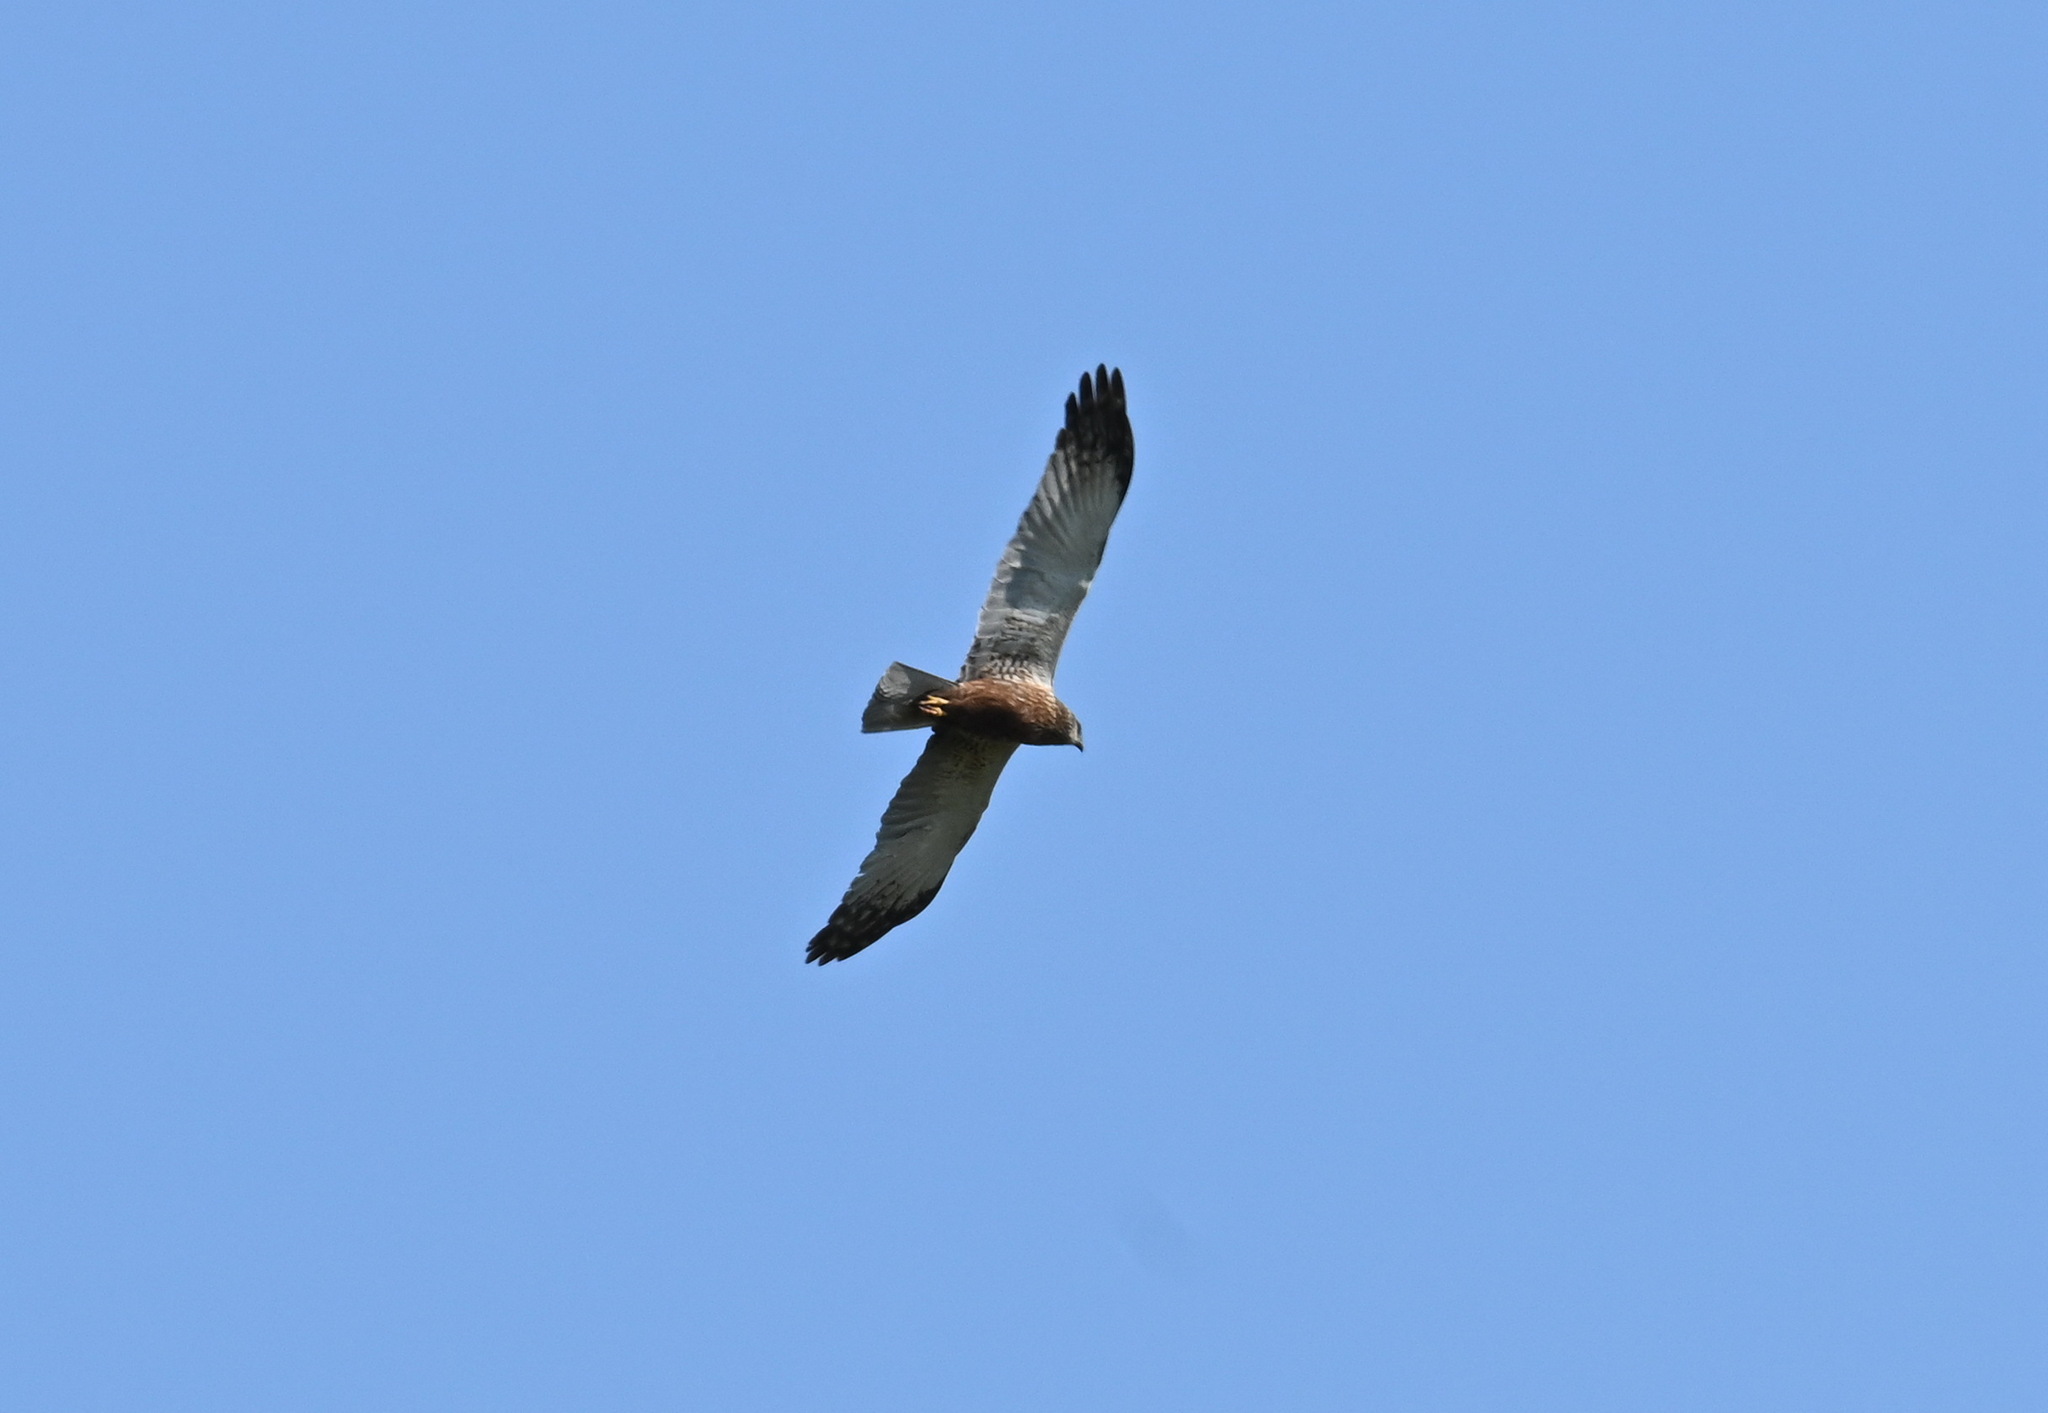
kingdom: Animalia
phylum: Chordata
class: Aves
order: Accipitriformes
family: Accipitridae
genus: Circus
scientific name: Circus aeruginosus
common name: Western marsh harrier
